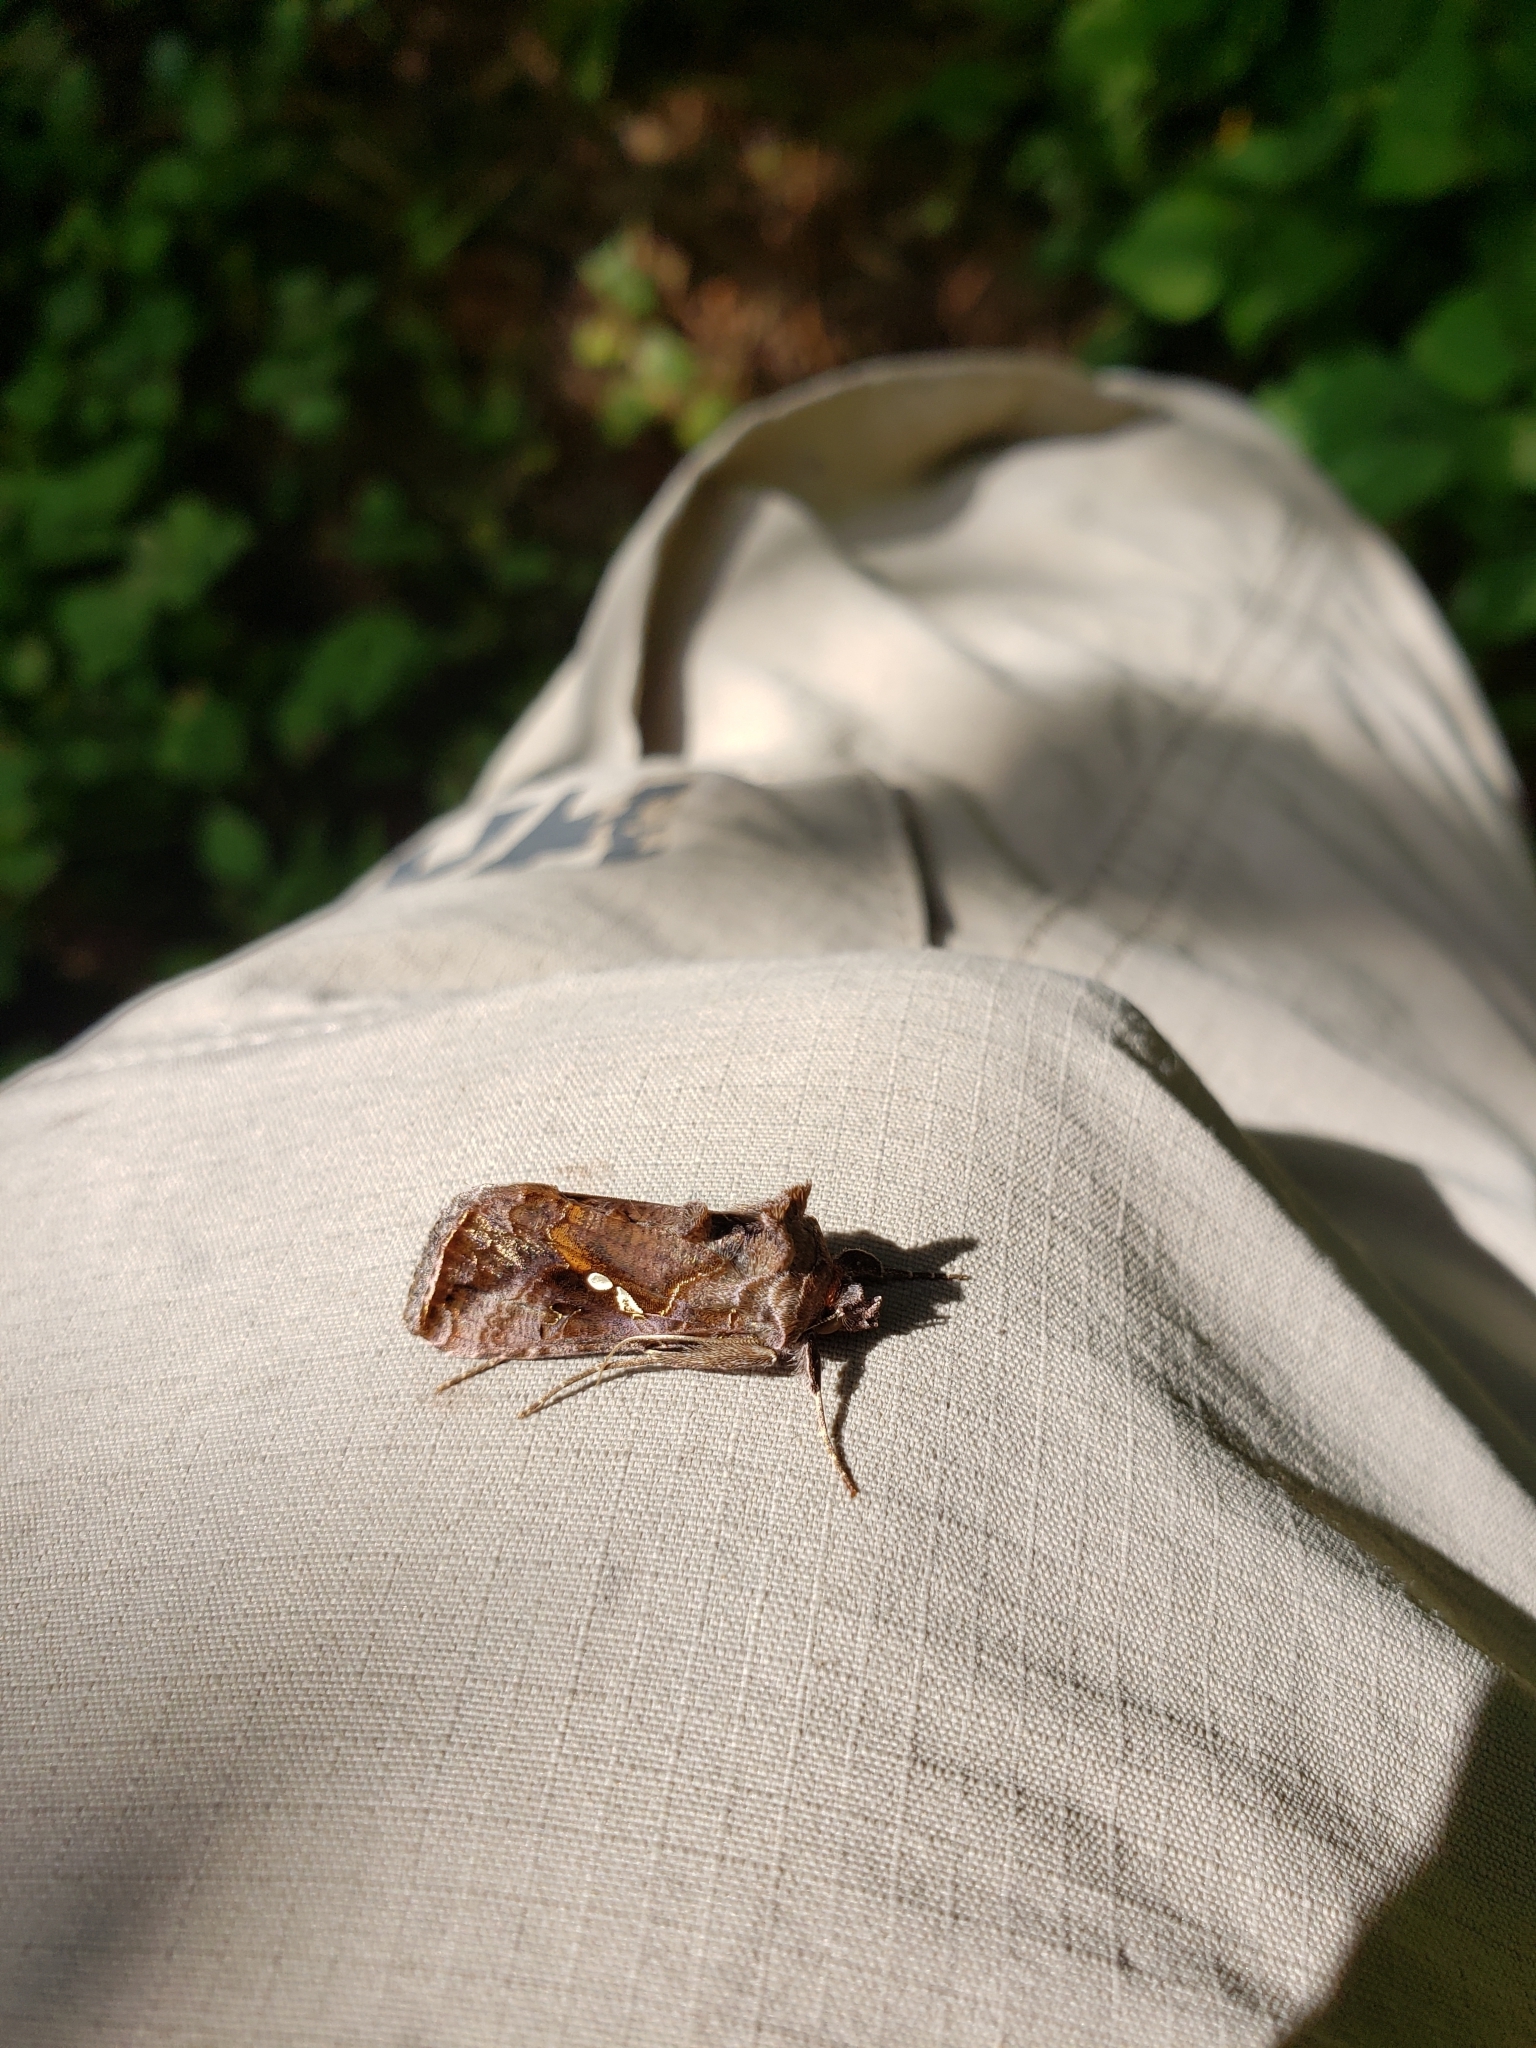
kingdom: Animalia
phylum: Arthropoda
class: Insecta
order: Lepidoptera
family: Noctuidae
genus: Autographa
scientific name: Autographa precationis
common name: Common looper moth
